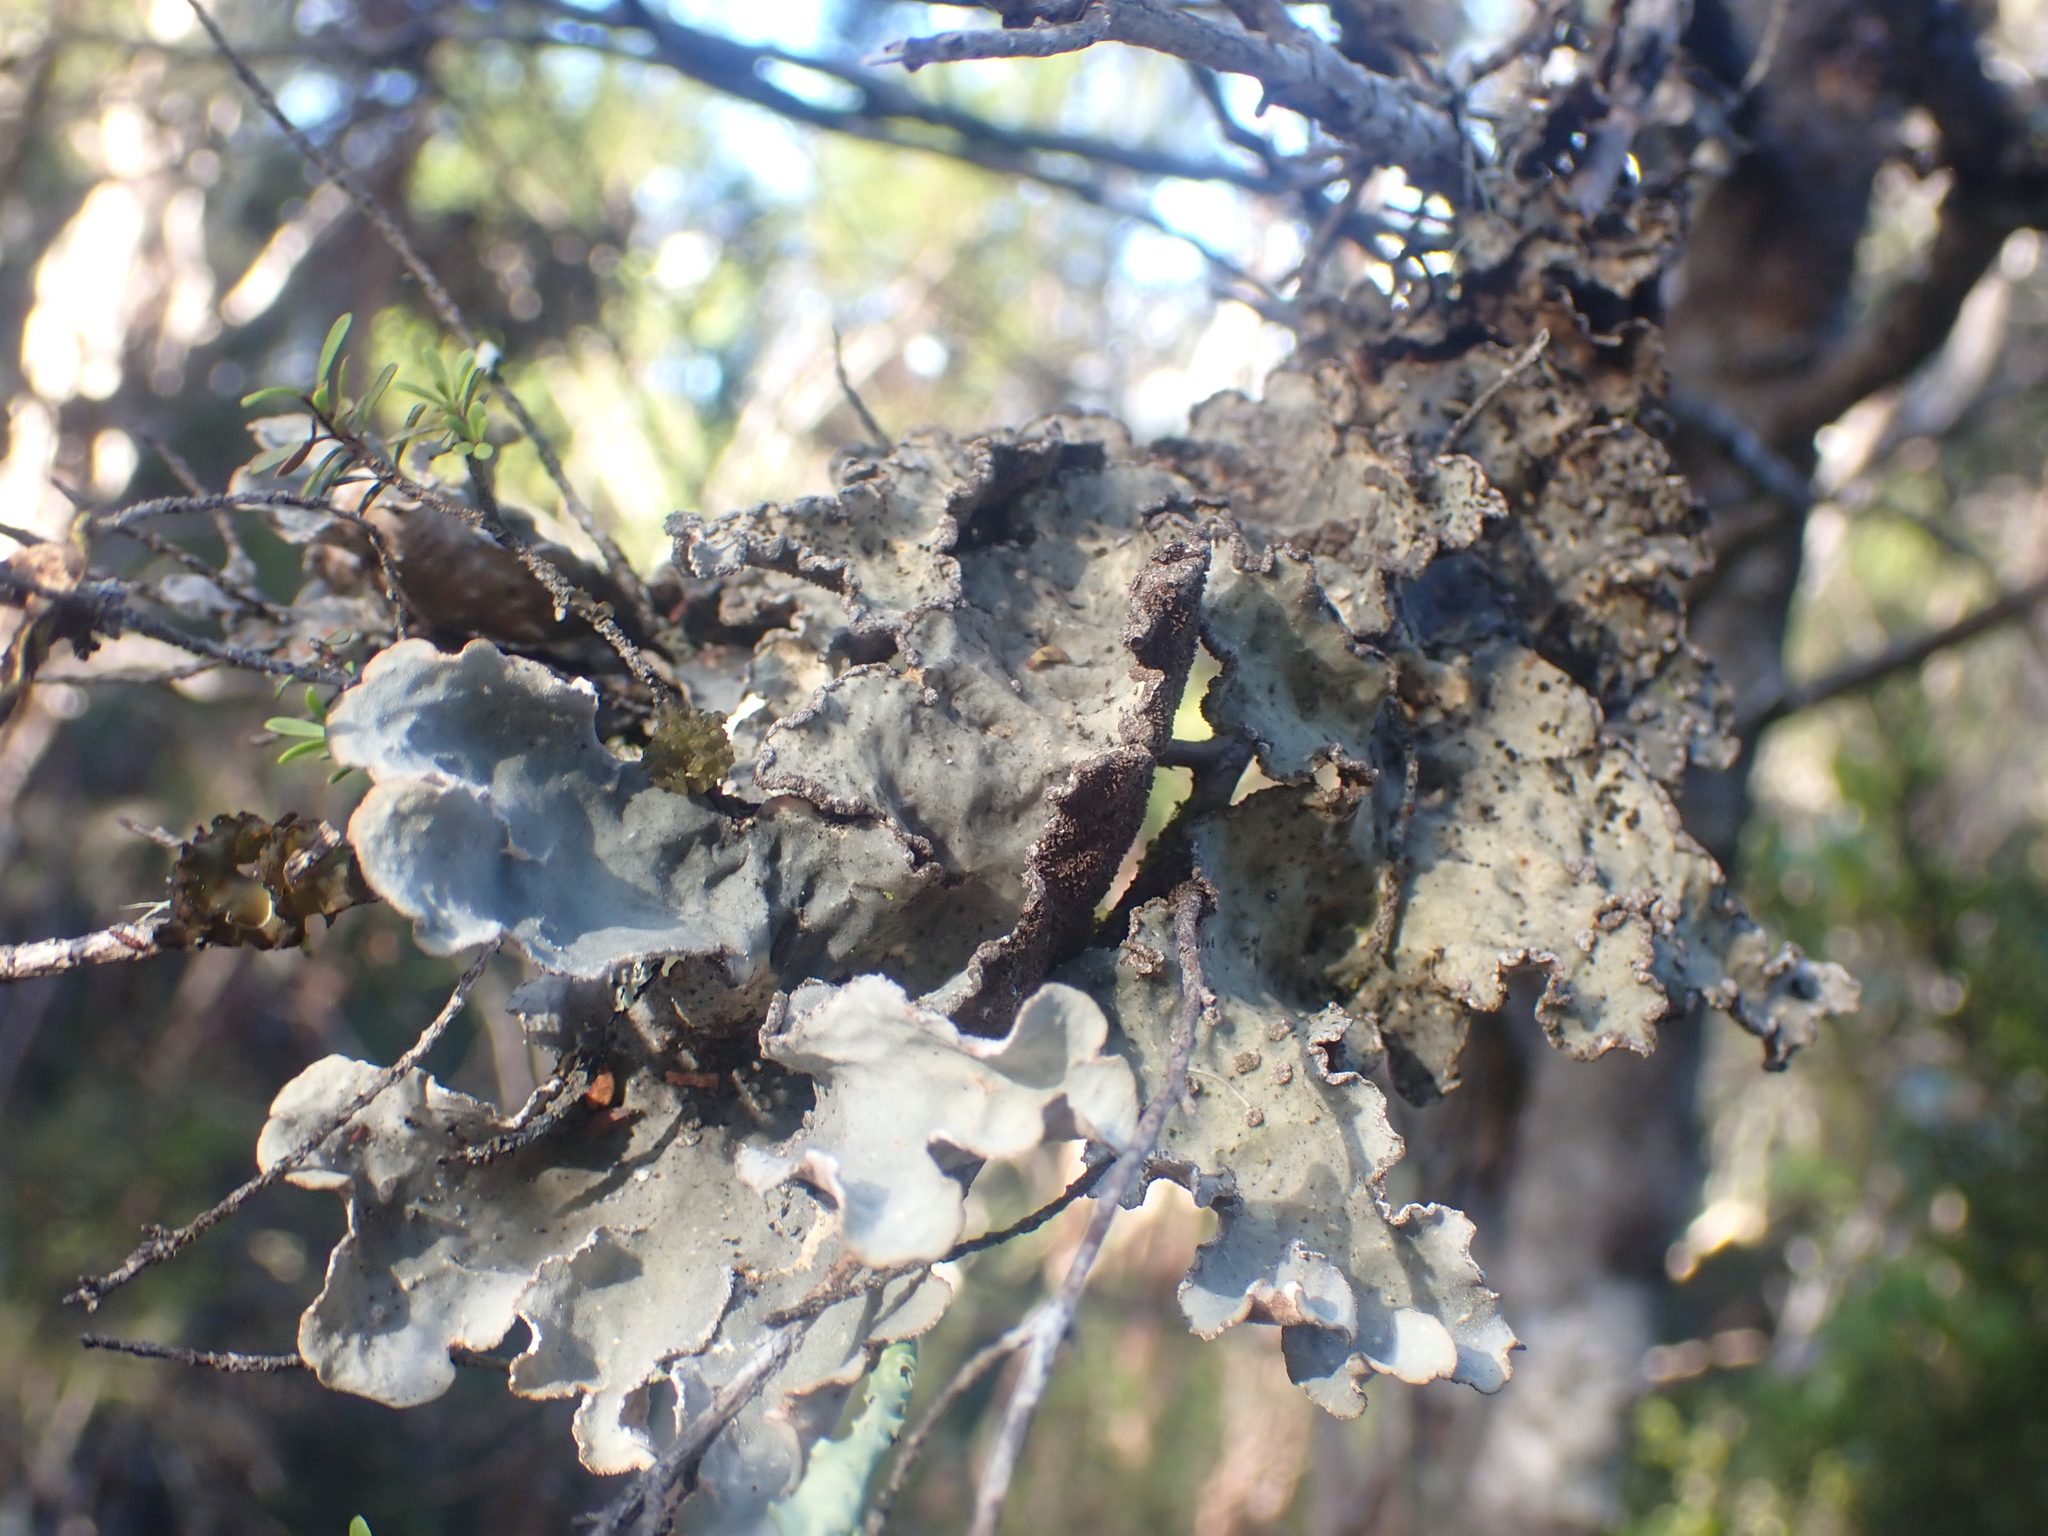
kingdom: Fungi
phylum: Ascomycota
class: Lecanoromycetes
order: Peltigerales
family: Lobariaceae
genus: Lobarina
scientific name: Lobarina scrobiculata
